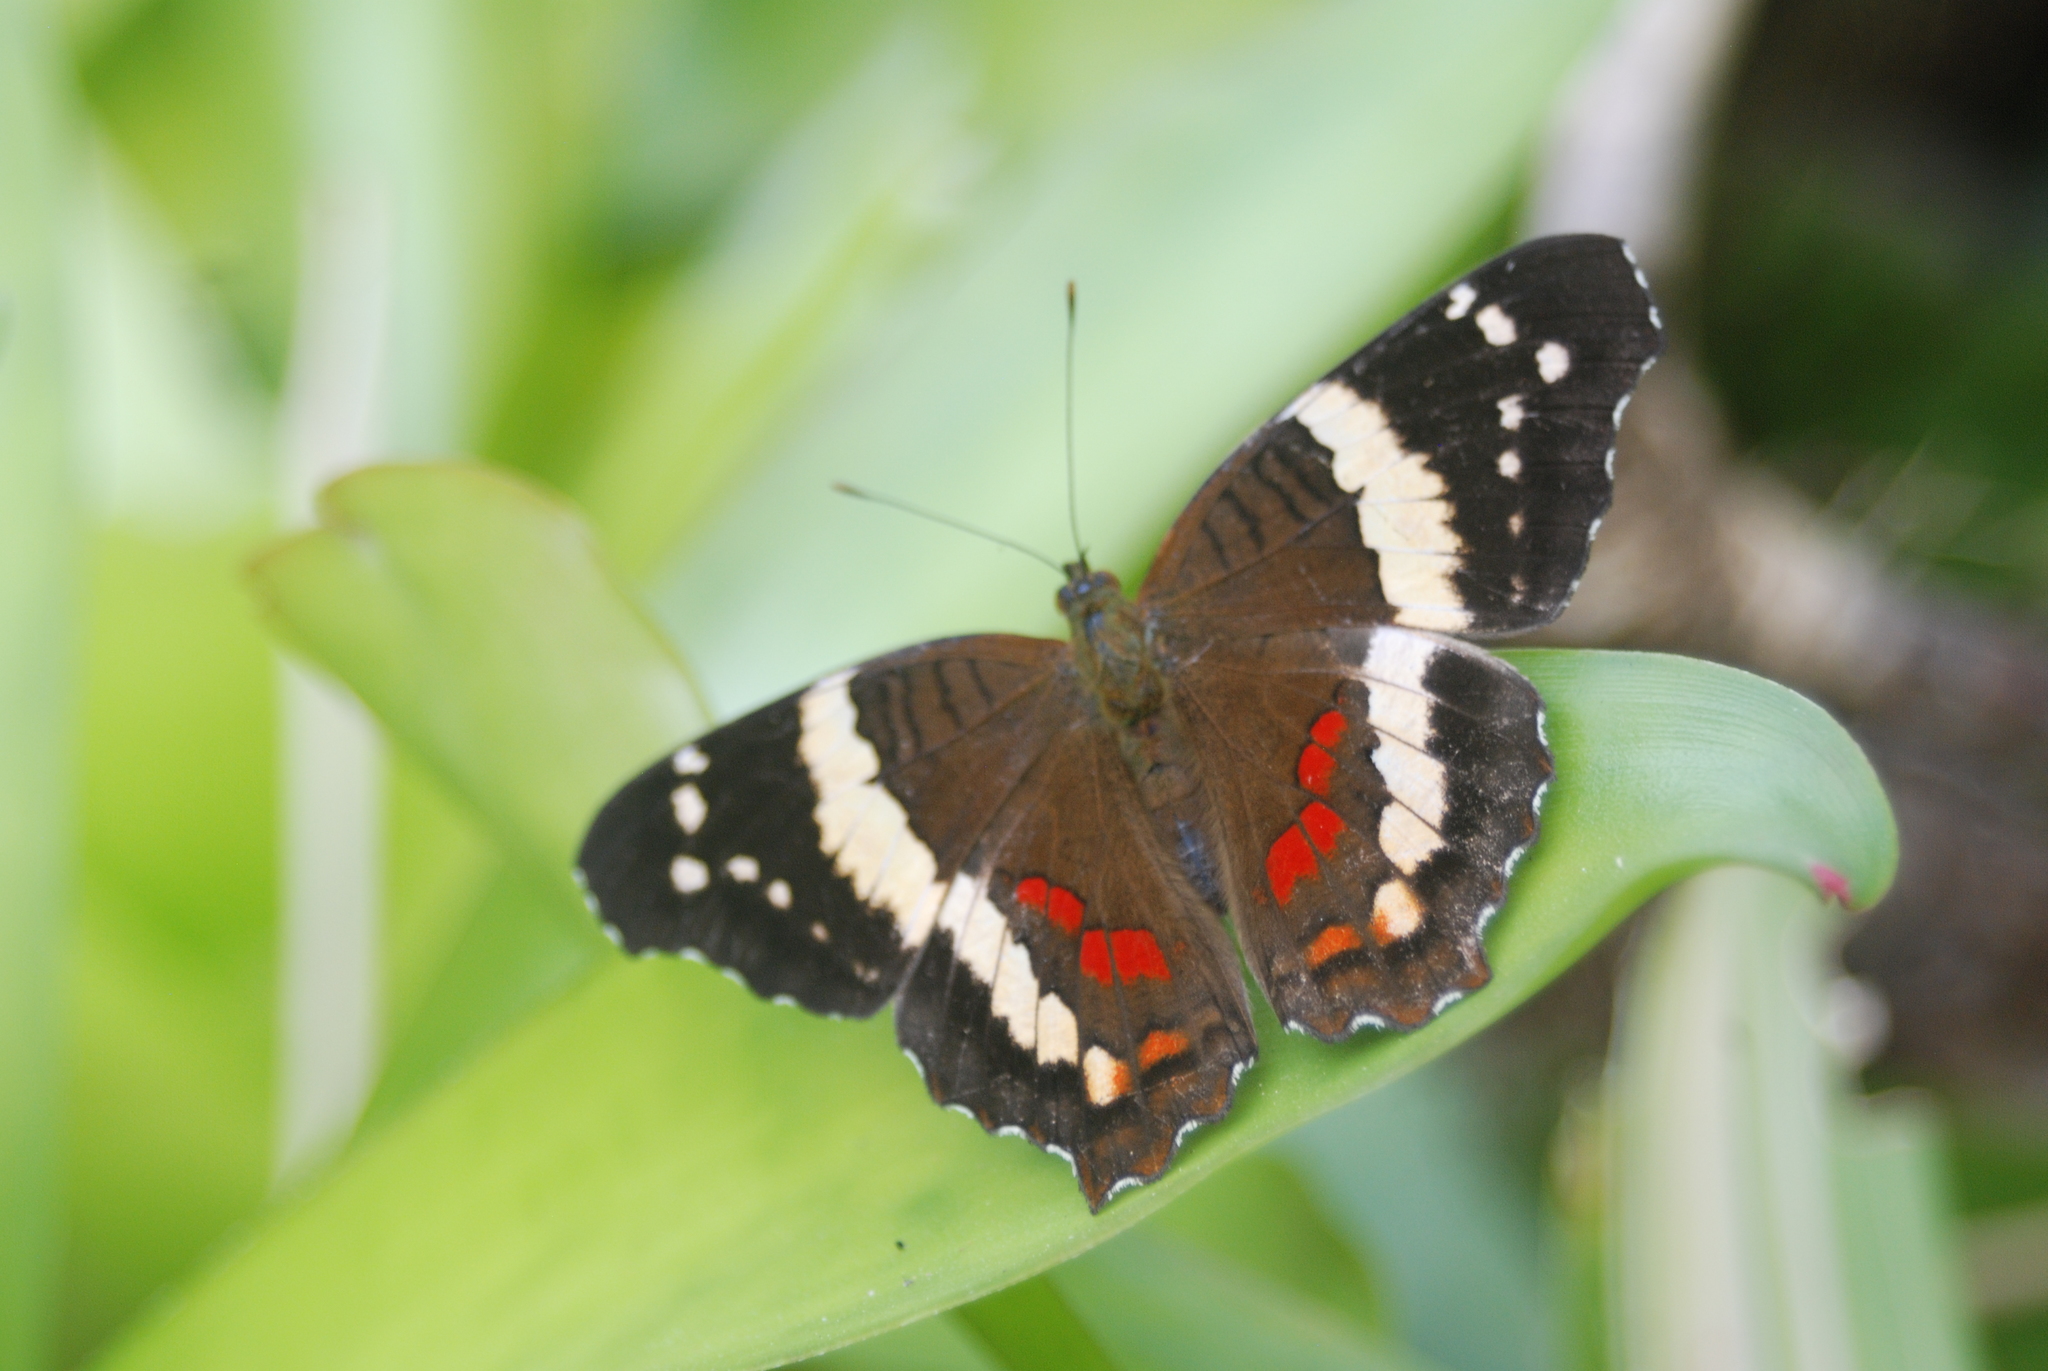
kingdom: Animalia
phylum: Arthropoda
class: Insecta
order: Lepidoptera
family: Nymphalidae
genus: Anartia
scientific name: Anartia fatima
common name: Banded peacock
